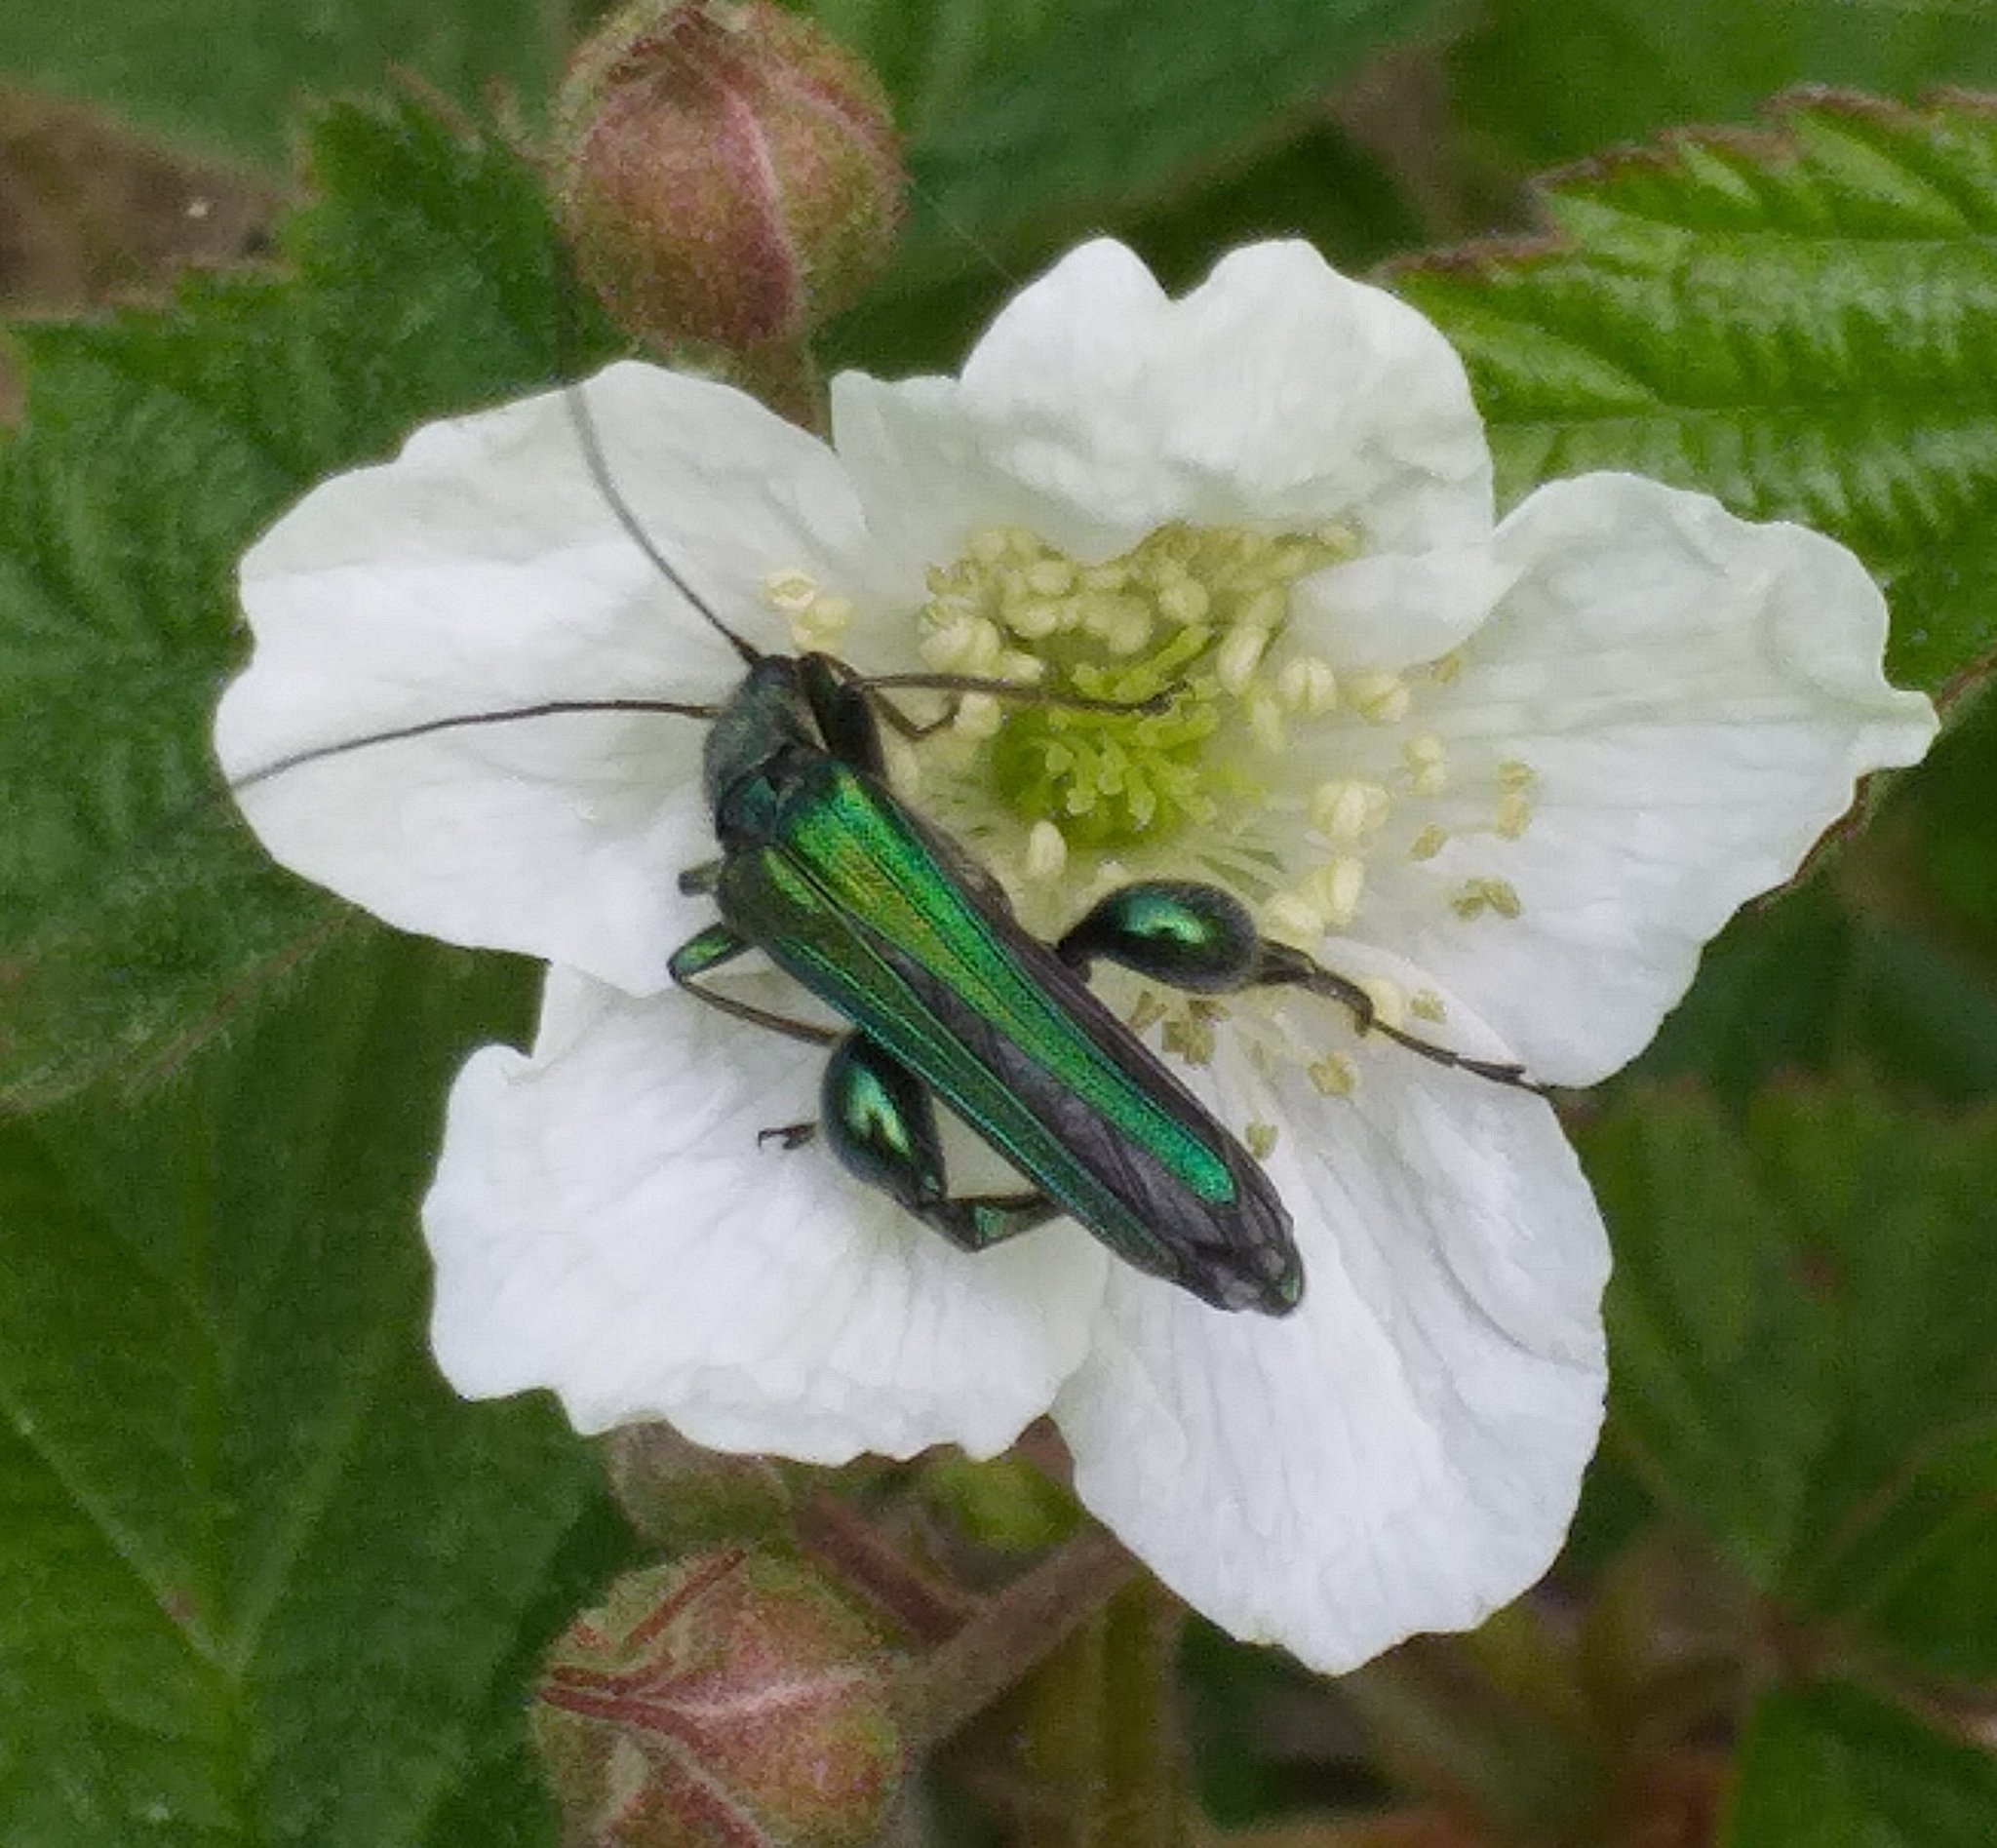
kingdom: Animalia
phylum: Arthropoda
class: Insecta
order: Coleoptera
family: Oedemeridae
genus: Oedemera
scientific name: Oedemera nobilis
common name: Swollen-thighed beetle
